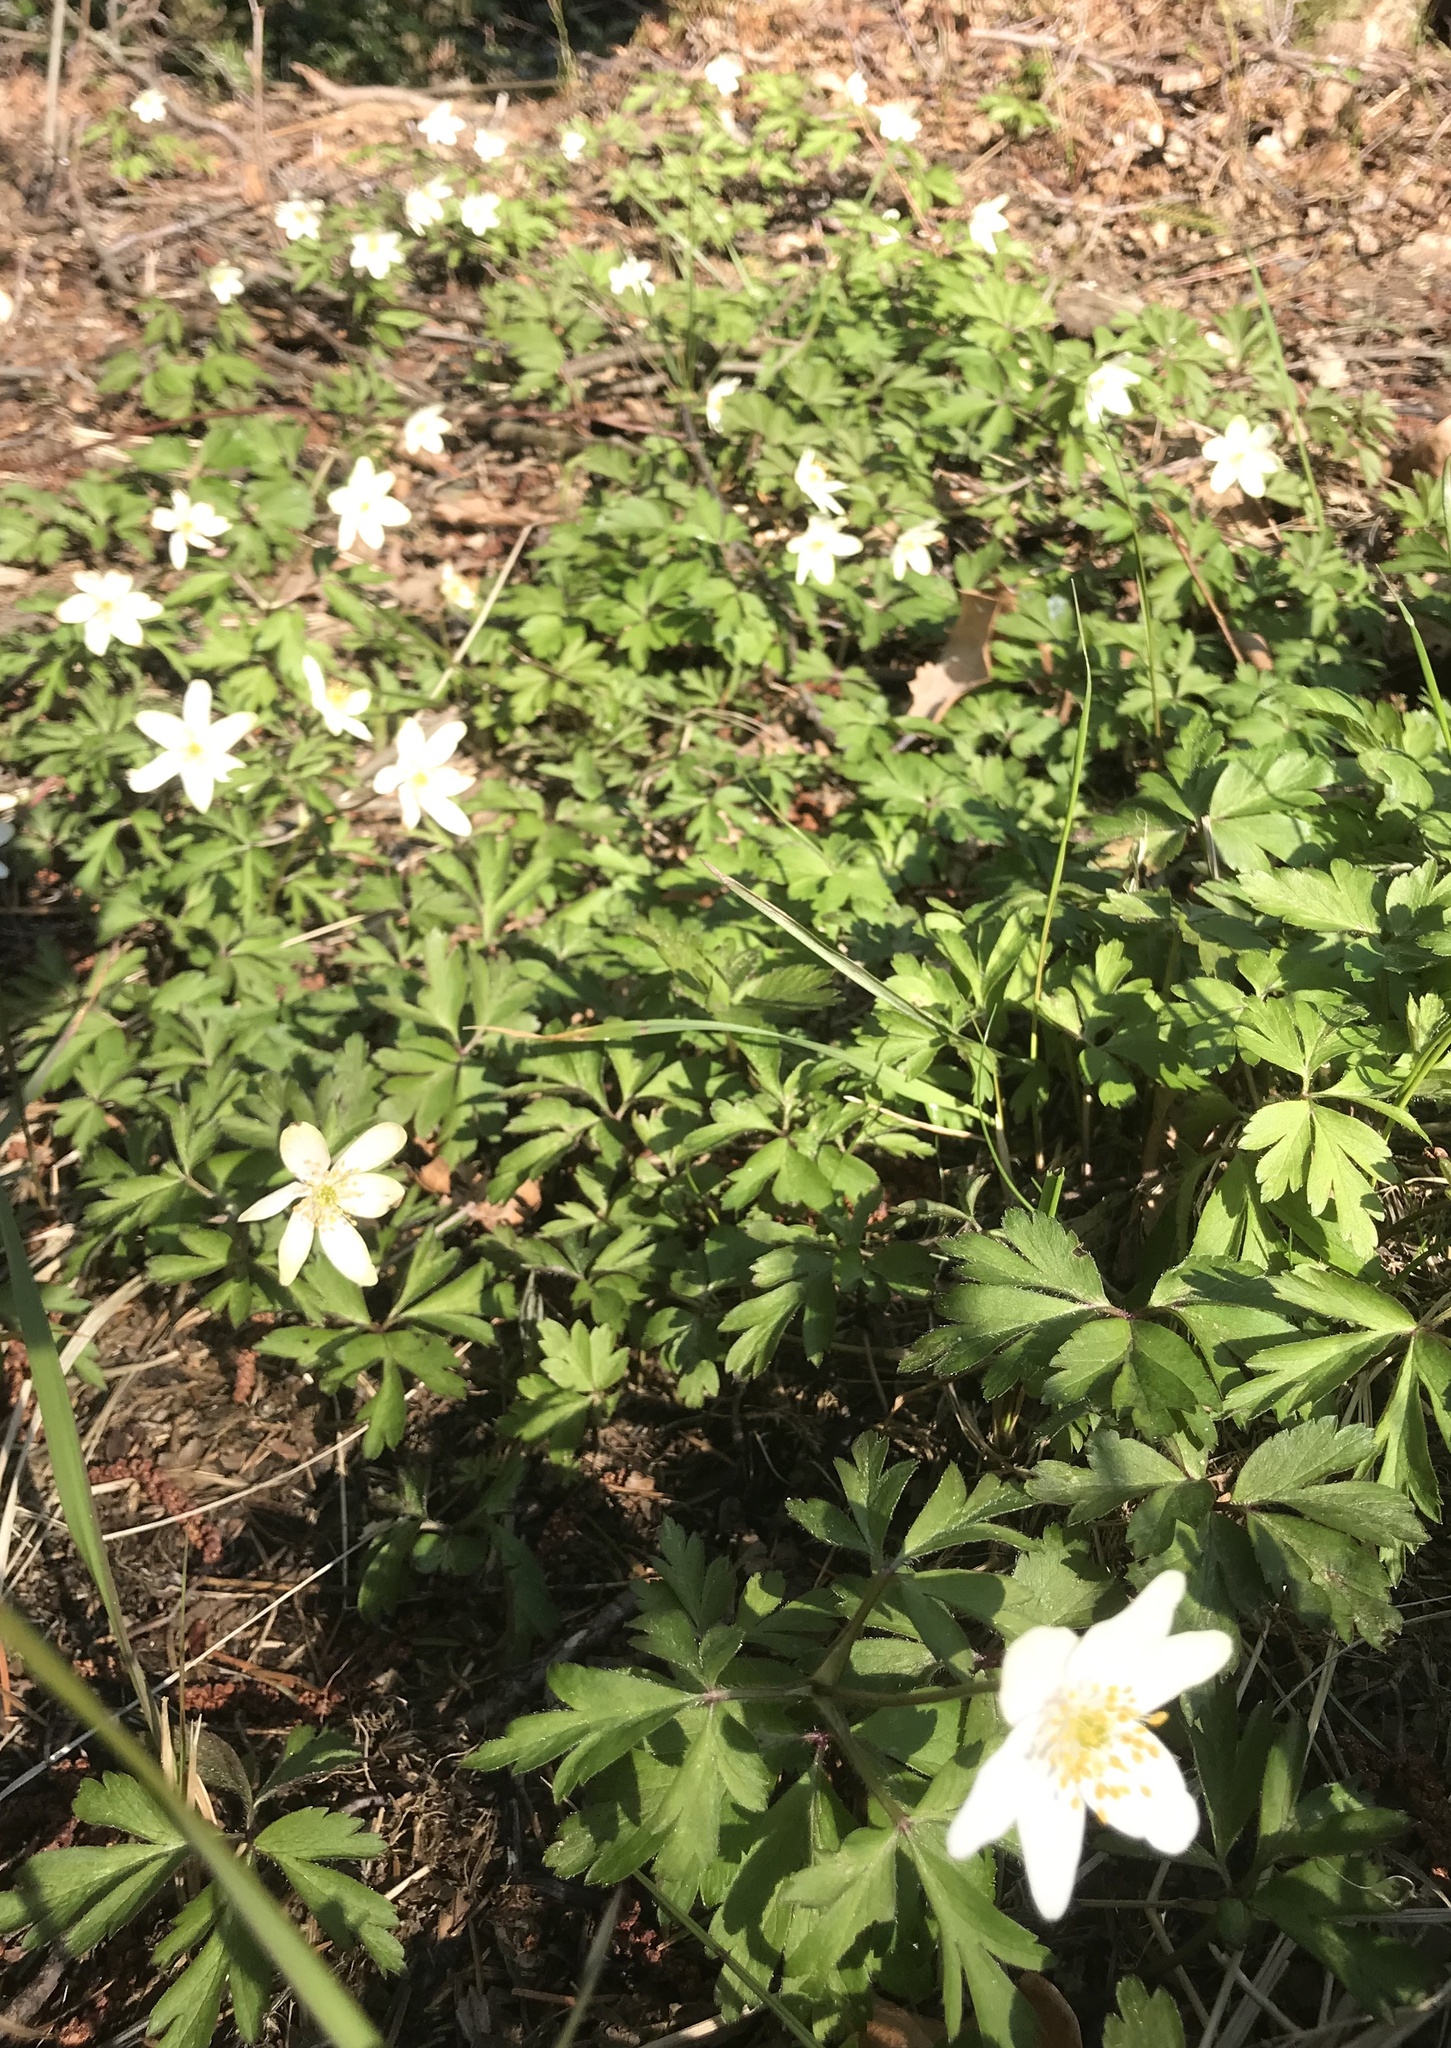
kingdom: Plantae
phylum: Tracheophyta
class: Magnoliopsida
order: Ranunculales
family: Ranunculaceae
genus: Anemone
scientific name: Anemone nemorosa
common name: Wood anemone
